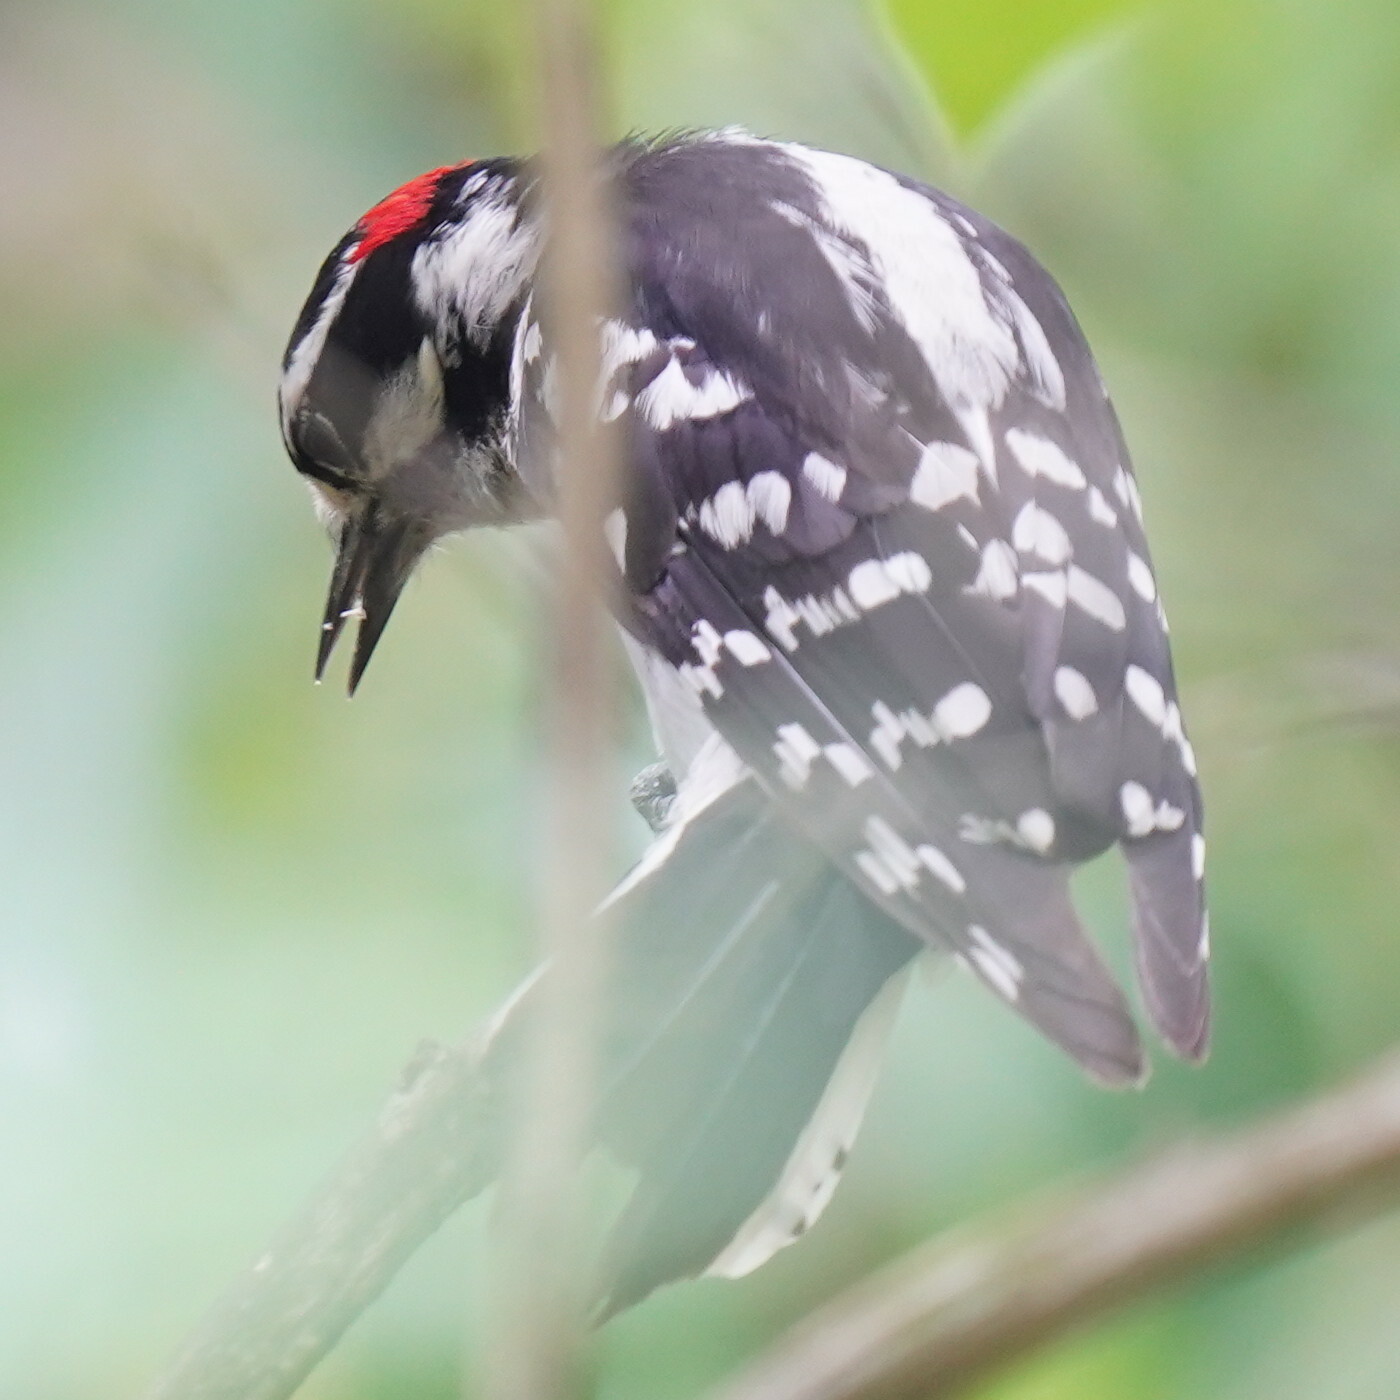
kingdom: Animalia
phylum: Chordata
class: Aves
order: Piciformes
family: Picidae
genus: Dryobates
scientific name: Dryobates pubescens
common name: Downy woodpecker
